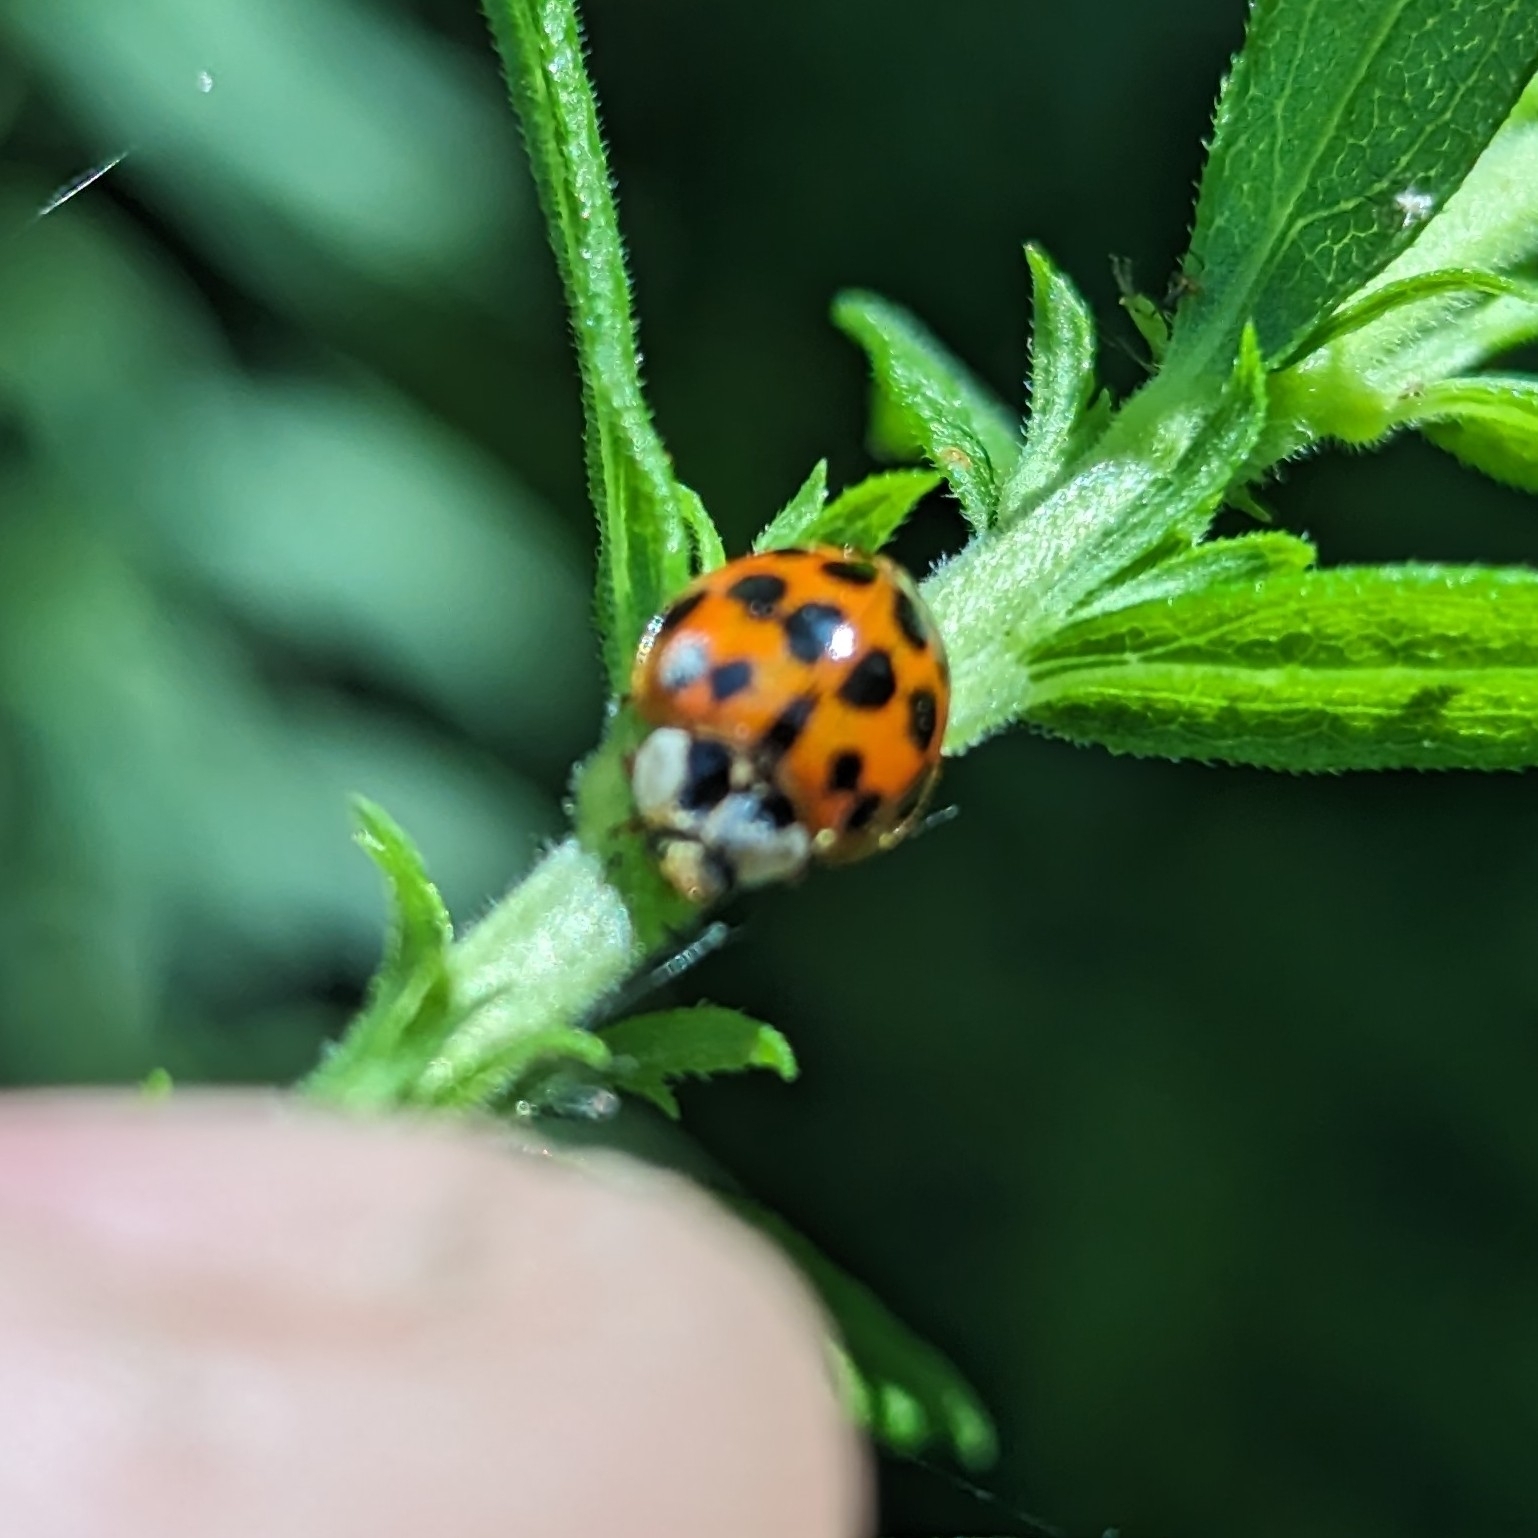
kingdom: Animalia
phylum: Arthropoda
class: Insecta
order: Coleoptera
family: Coccinellidae
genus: Harmonia
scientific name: Harmonia axyridis
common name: Harlequin ladybird
